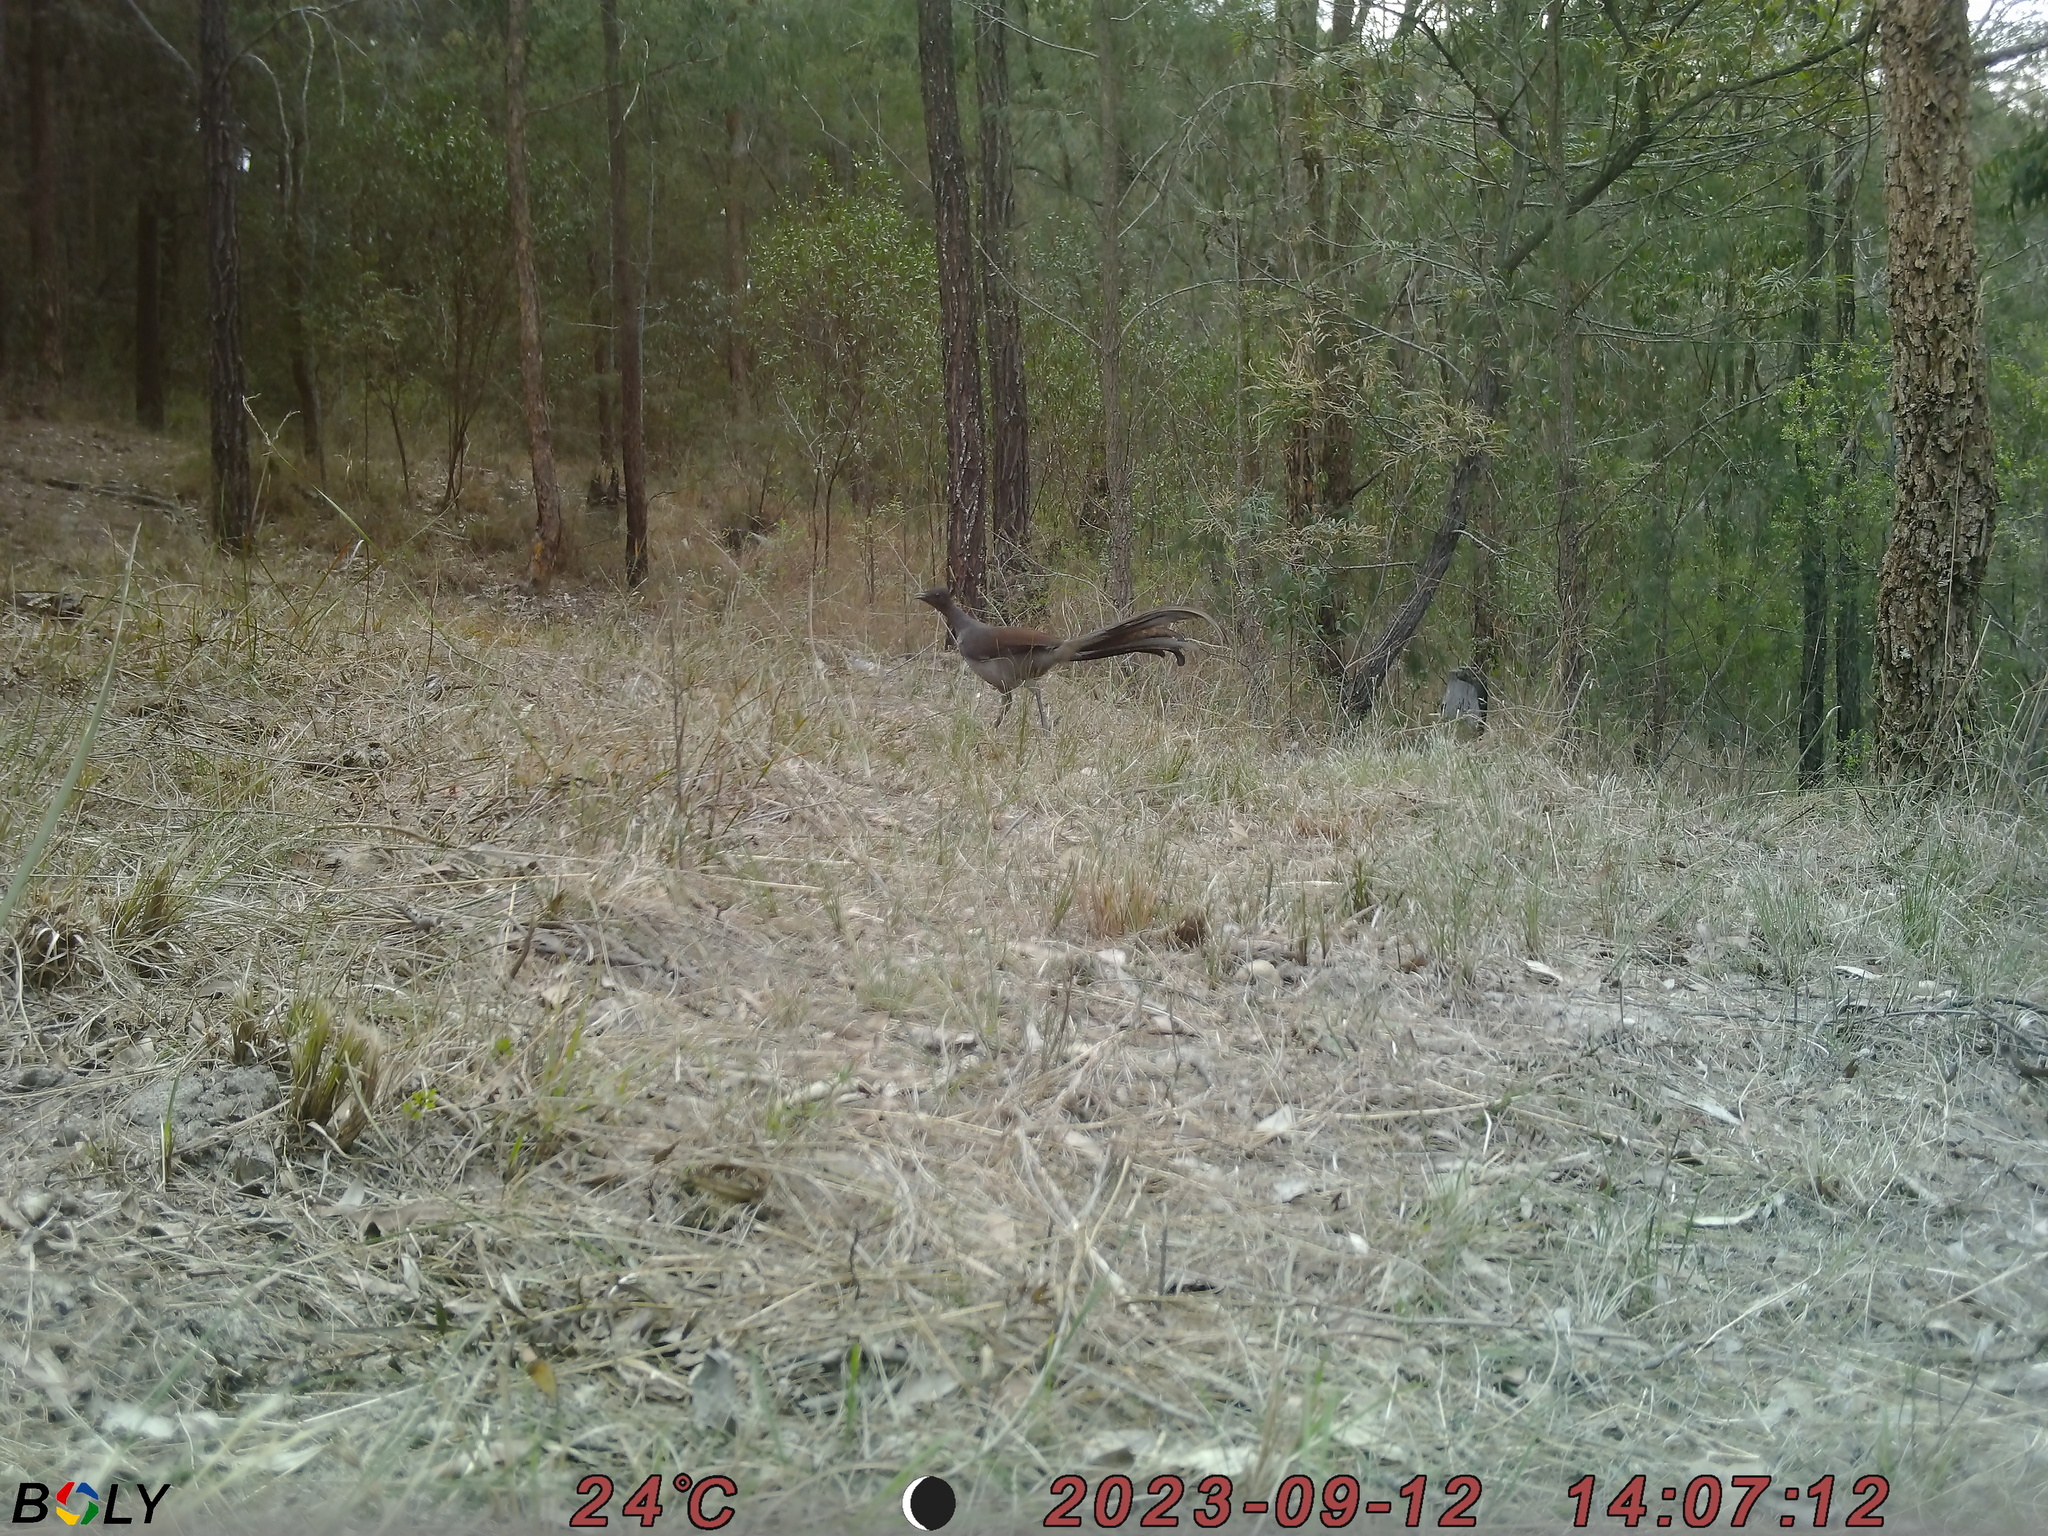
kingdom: Animalia
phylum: Chordata
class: Aves
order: Passeriformes
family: Menuridae
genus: Menura
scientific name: Menura novaehollandiae
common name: Superb lyrebird
